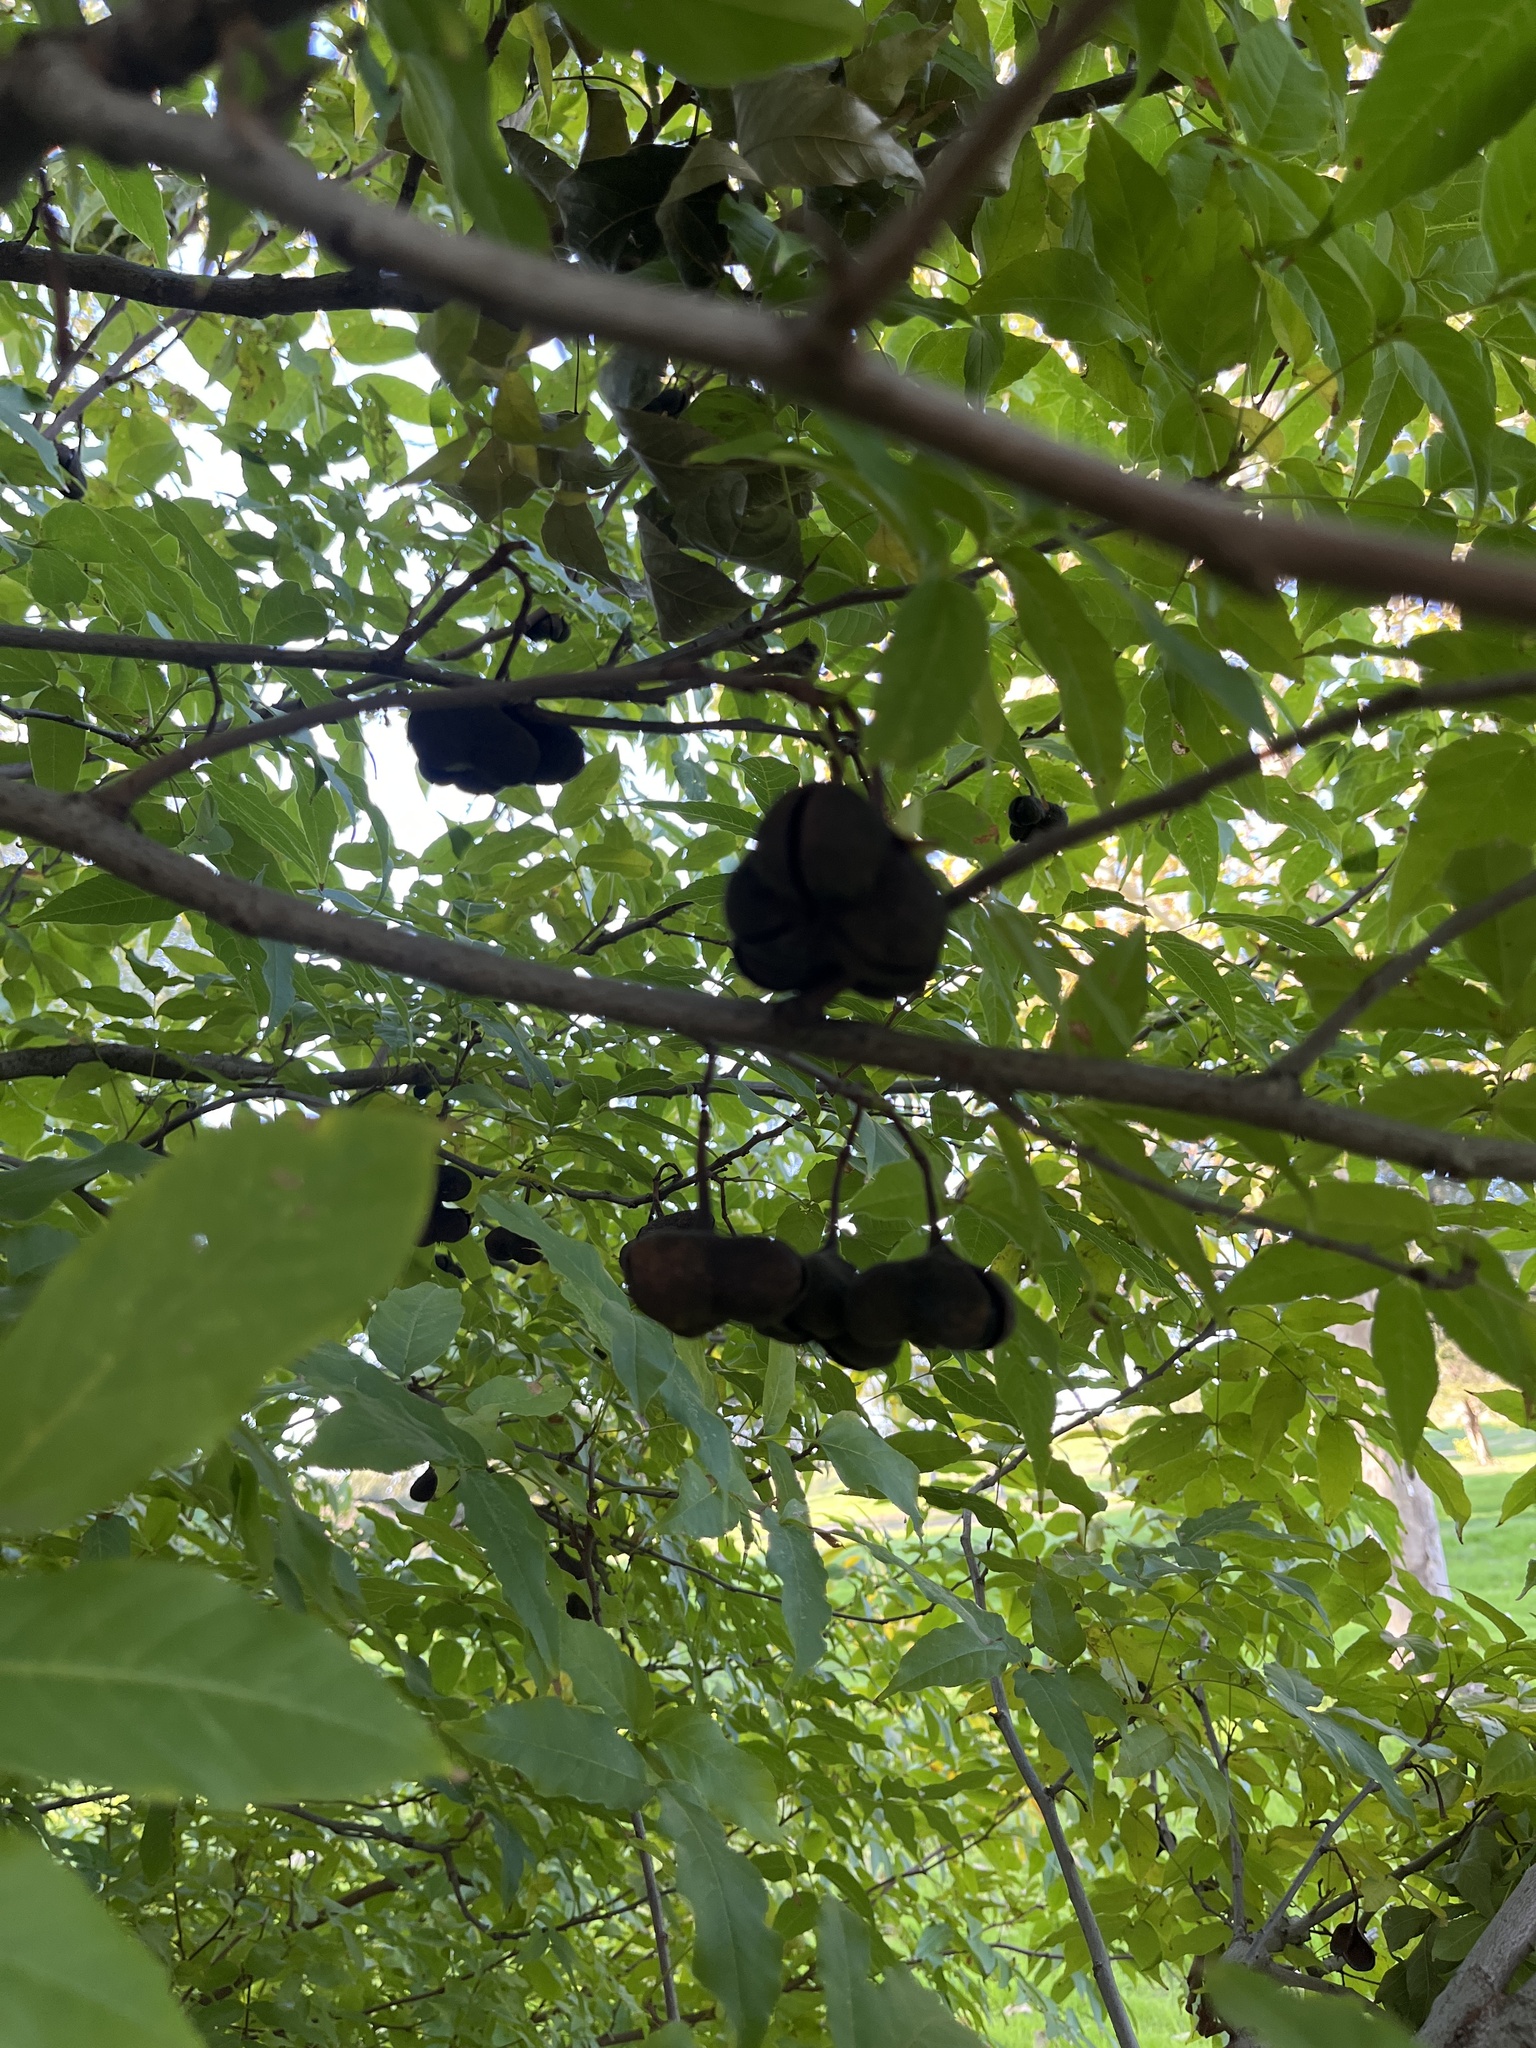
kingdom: Plantae
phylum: Tracheophyta
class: Magnoliopsida
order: Sapindales
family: Sapindaceae
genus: Ungnadia
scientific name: Ungnadia speciosa
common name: Texas-buckeye
